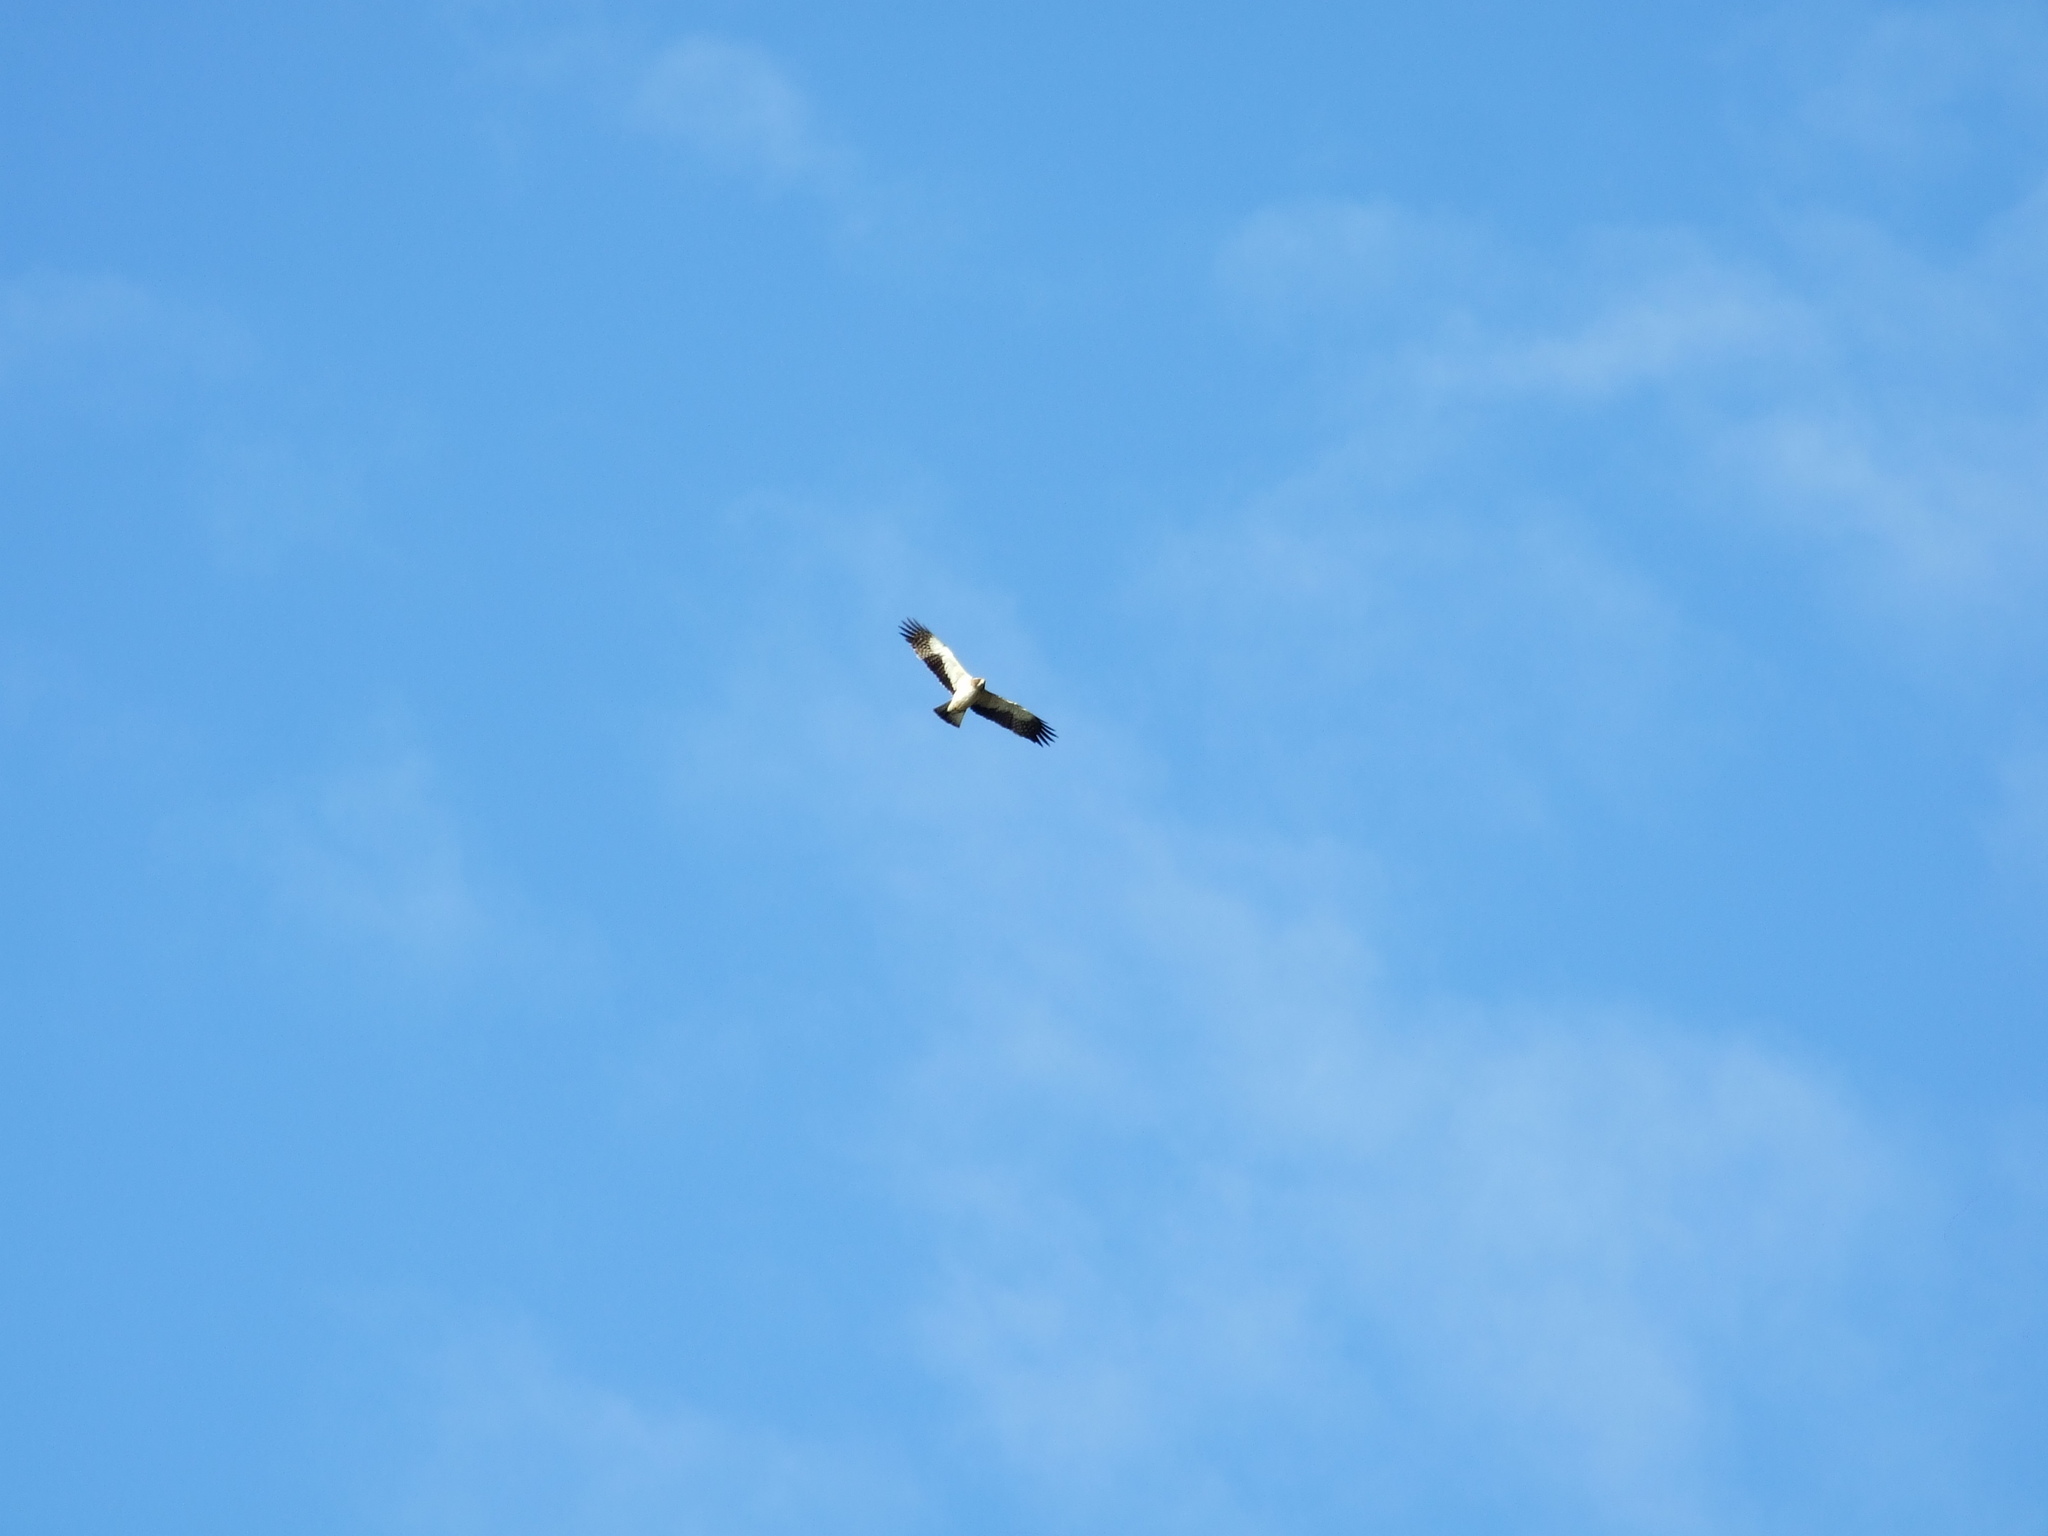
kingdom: Animalia
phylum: Chordata
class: Aves
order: Accipitriformes
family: Accipitridae
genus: Hieraaetus
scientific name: Hieraaetus pennatus
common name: Booted eagle
